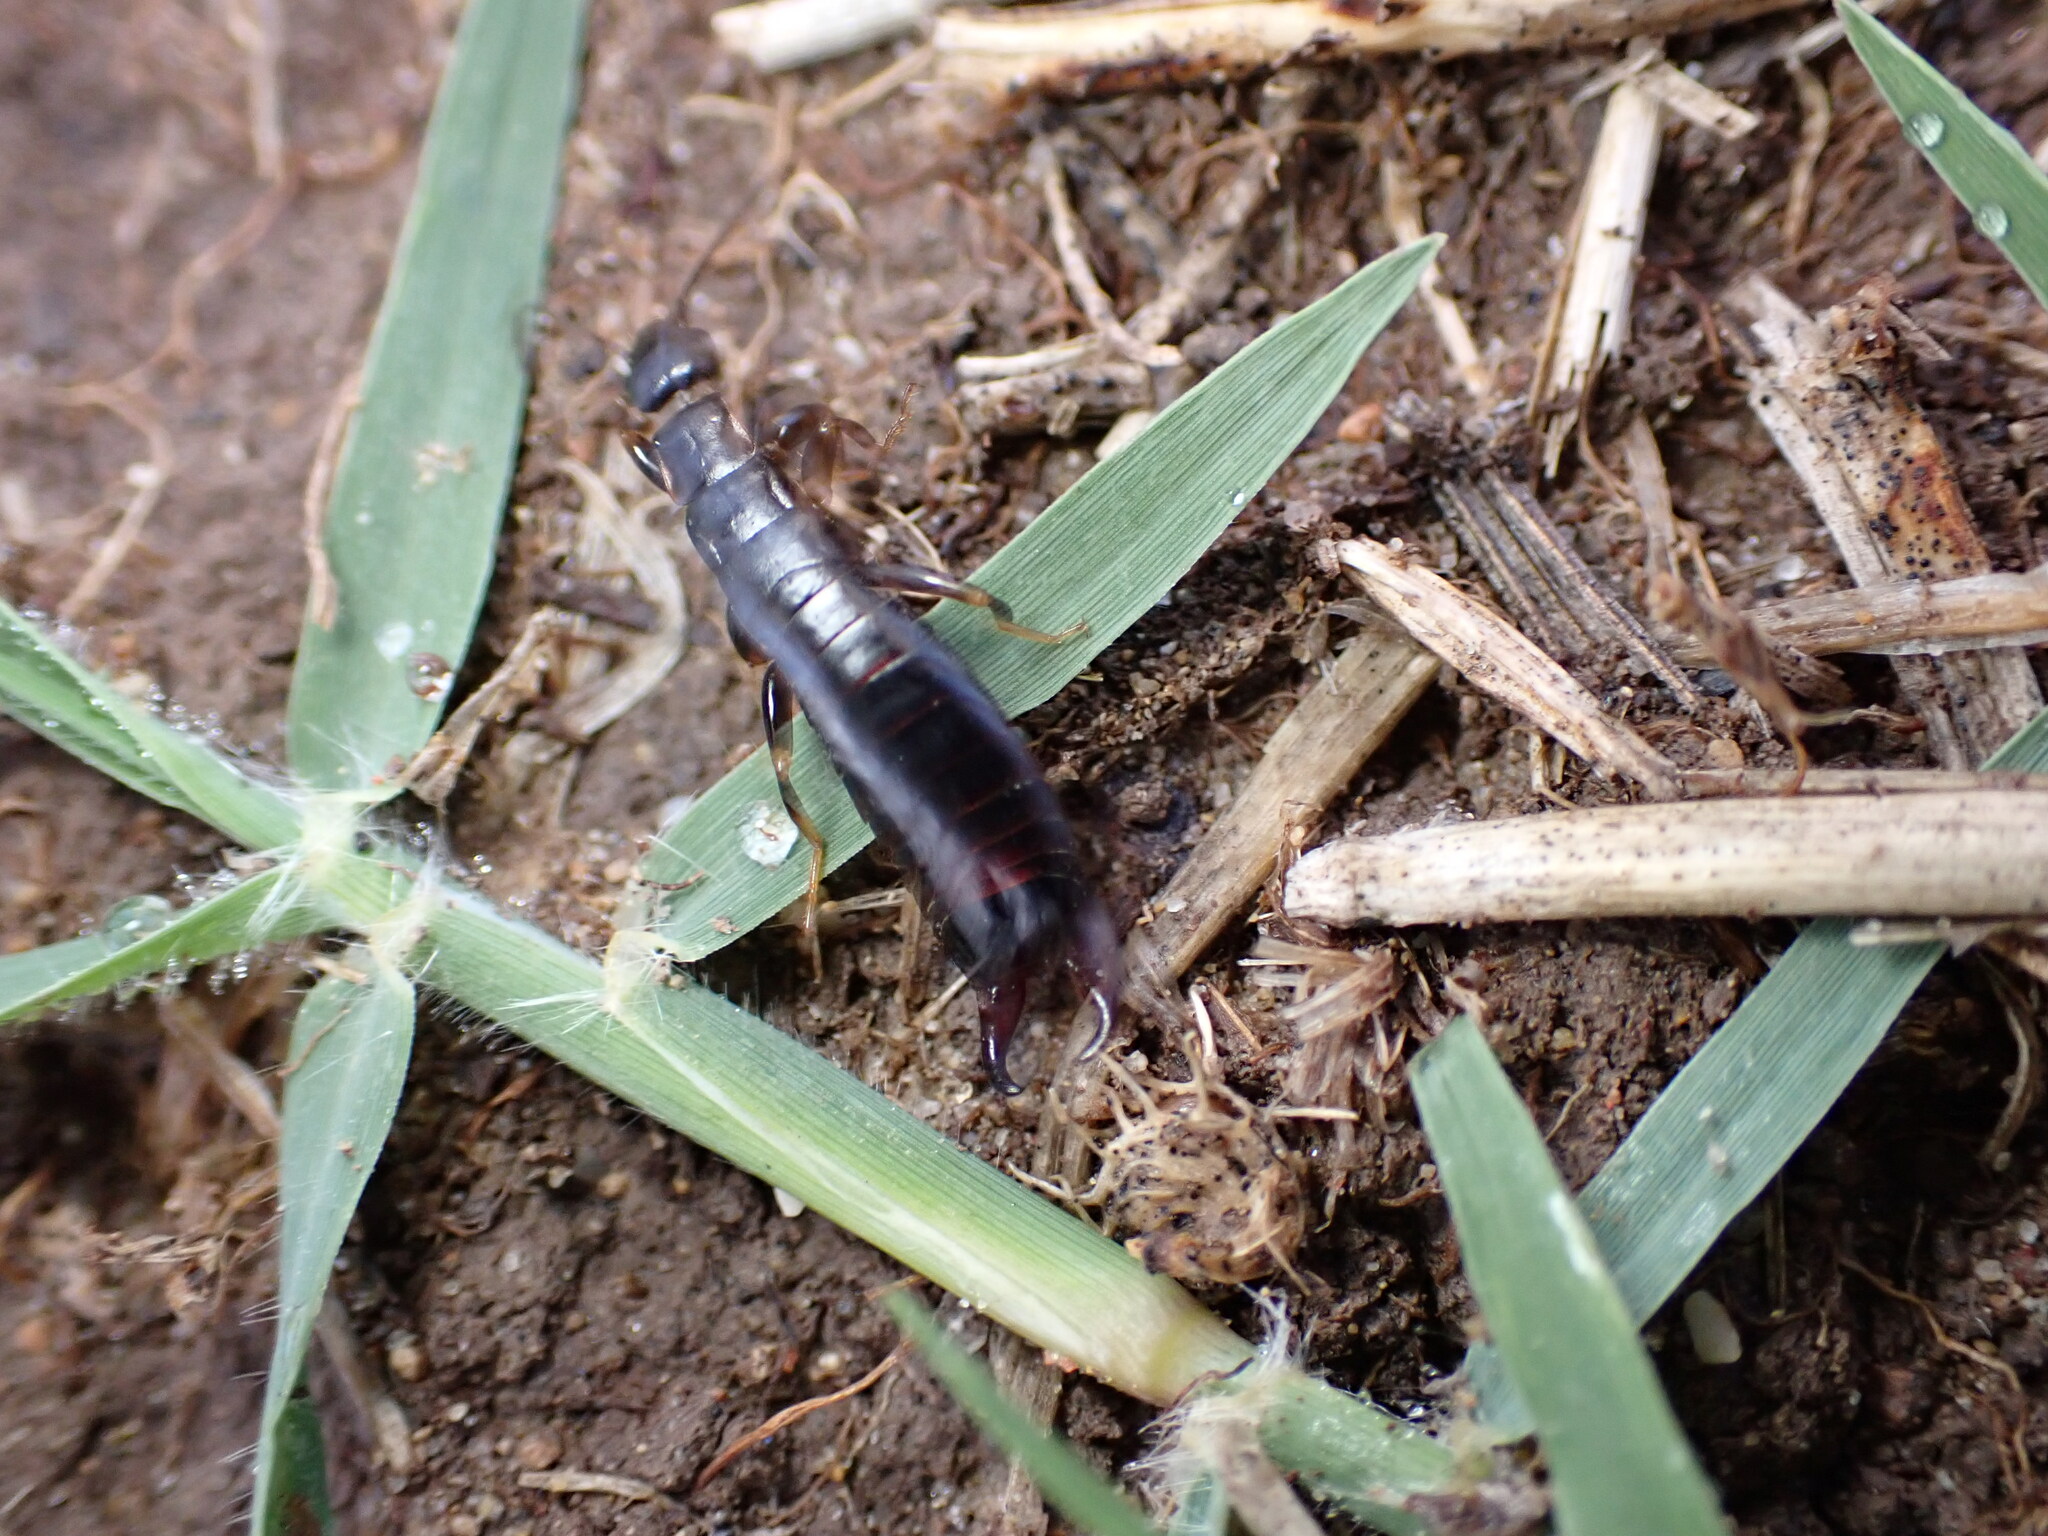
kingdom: Animalia
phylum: Arthropoda
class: Insecta
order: Dermaptera
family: Anisolabididae
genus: Euborellia
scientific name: Euborellia moesta
